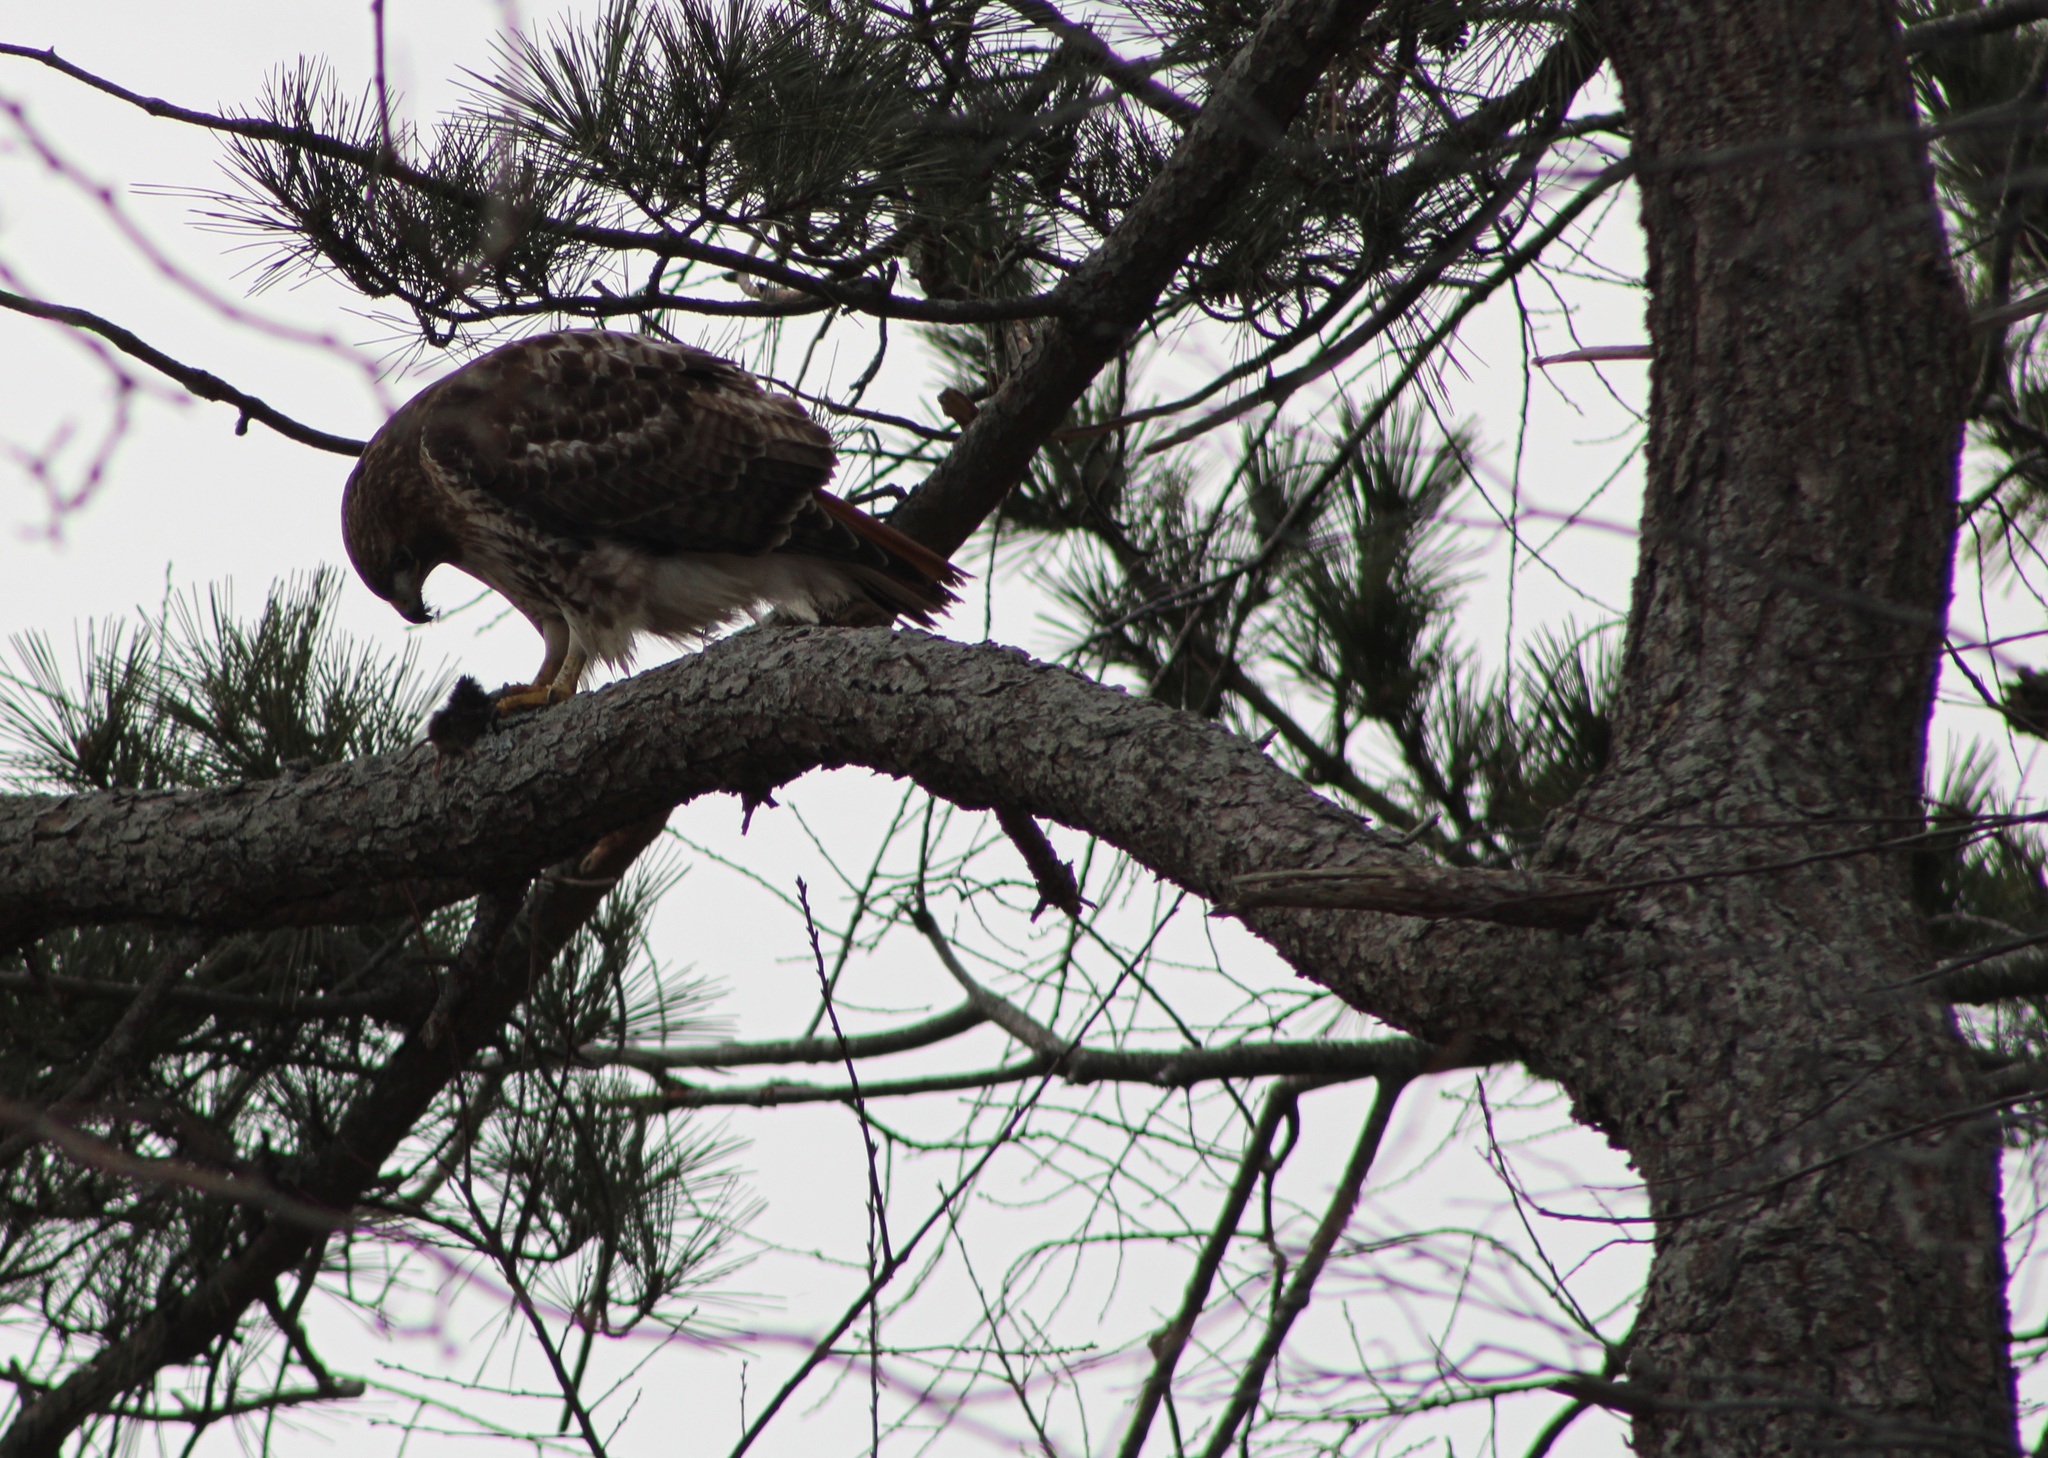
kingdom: Animalia
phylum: Chordata
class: Aves
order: Accipitriformes
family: Accipitridae
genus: Buteo
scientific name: Buteo jamaicensis
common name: Red-tailed hawk
